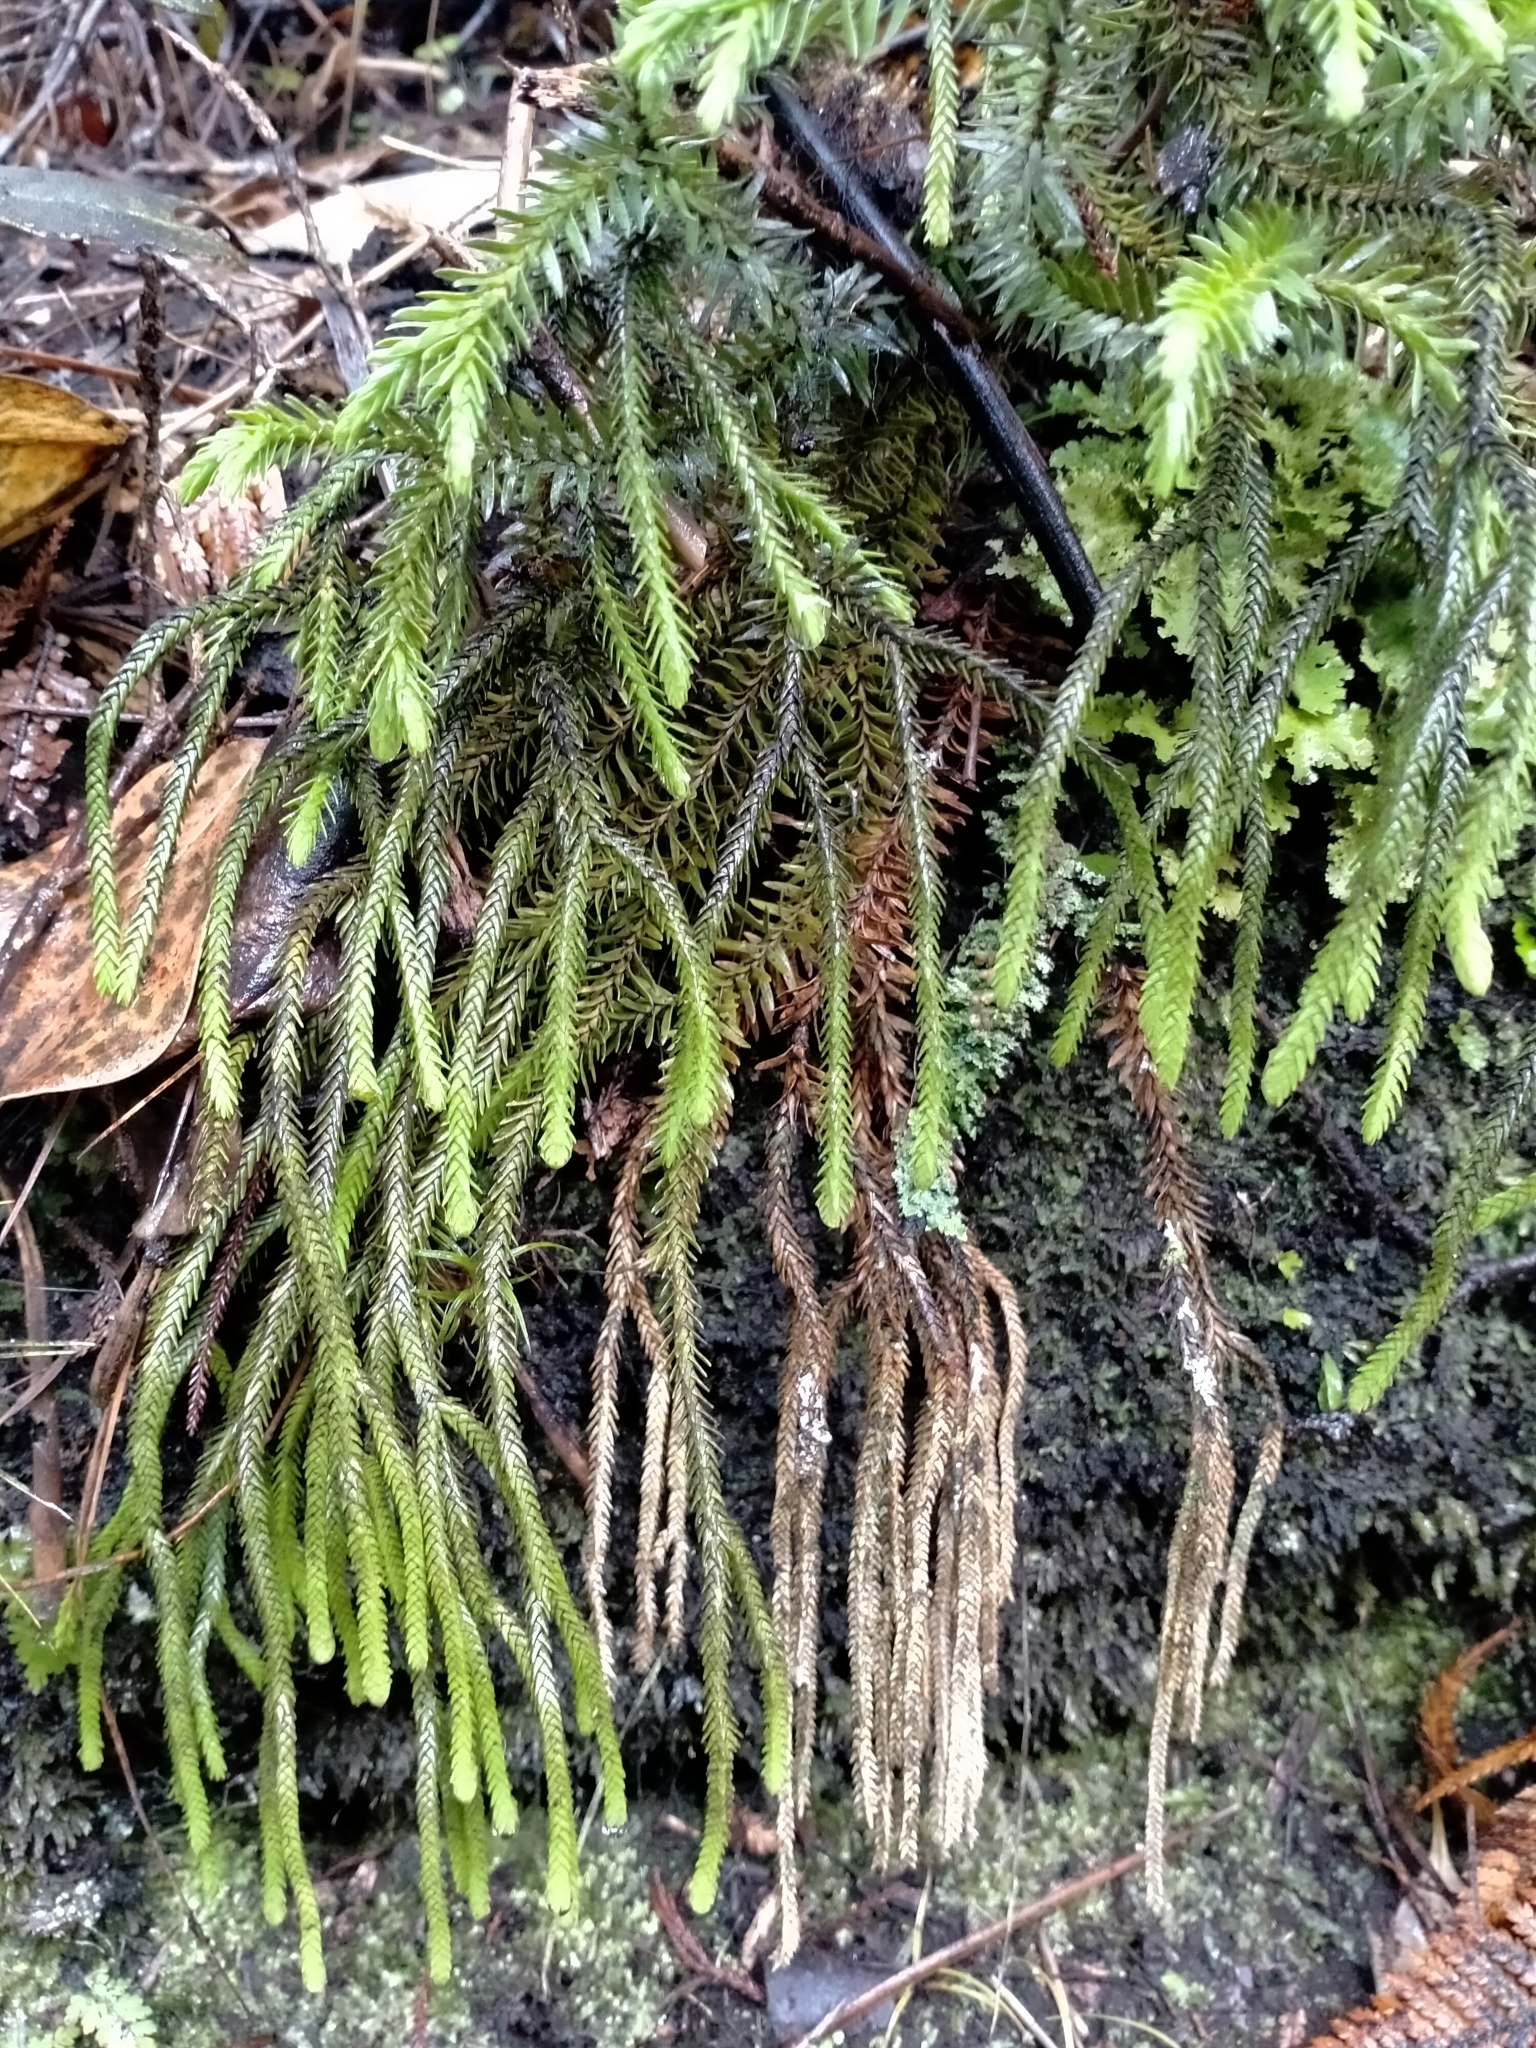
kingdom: Plantae
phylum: Tracheophyta
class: Lycopodiopsida
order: Lycopodiales
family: Lycopodiaceae
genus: Phlegmariurus
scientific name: Phlegmariurus varius
